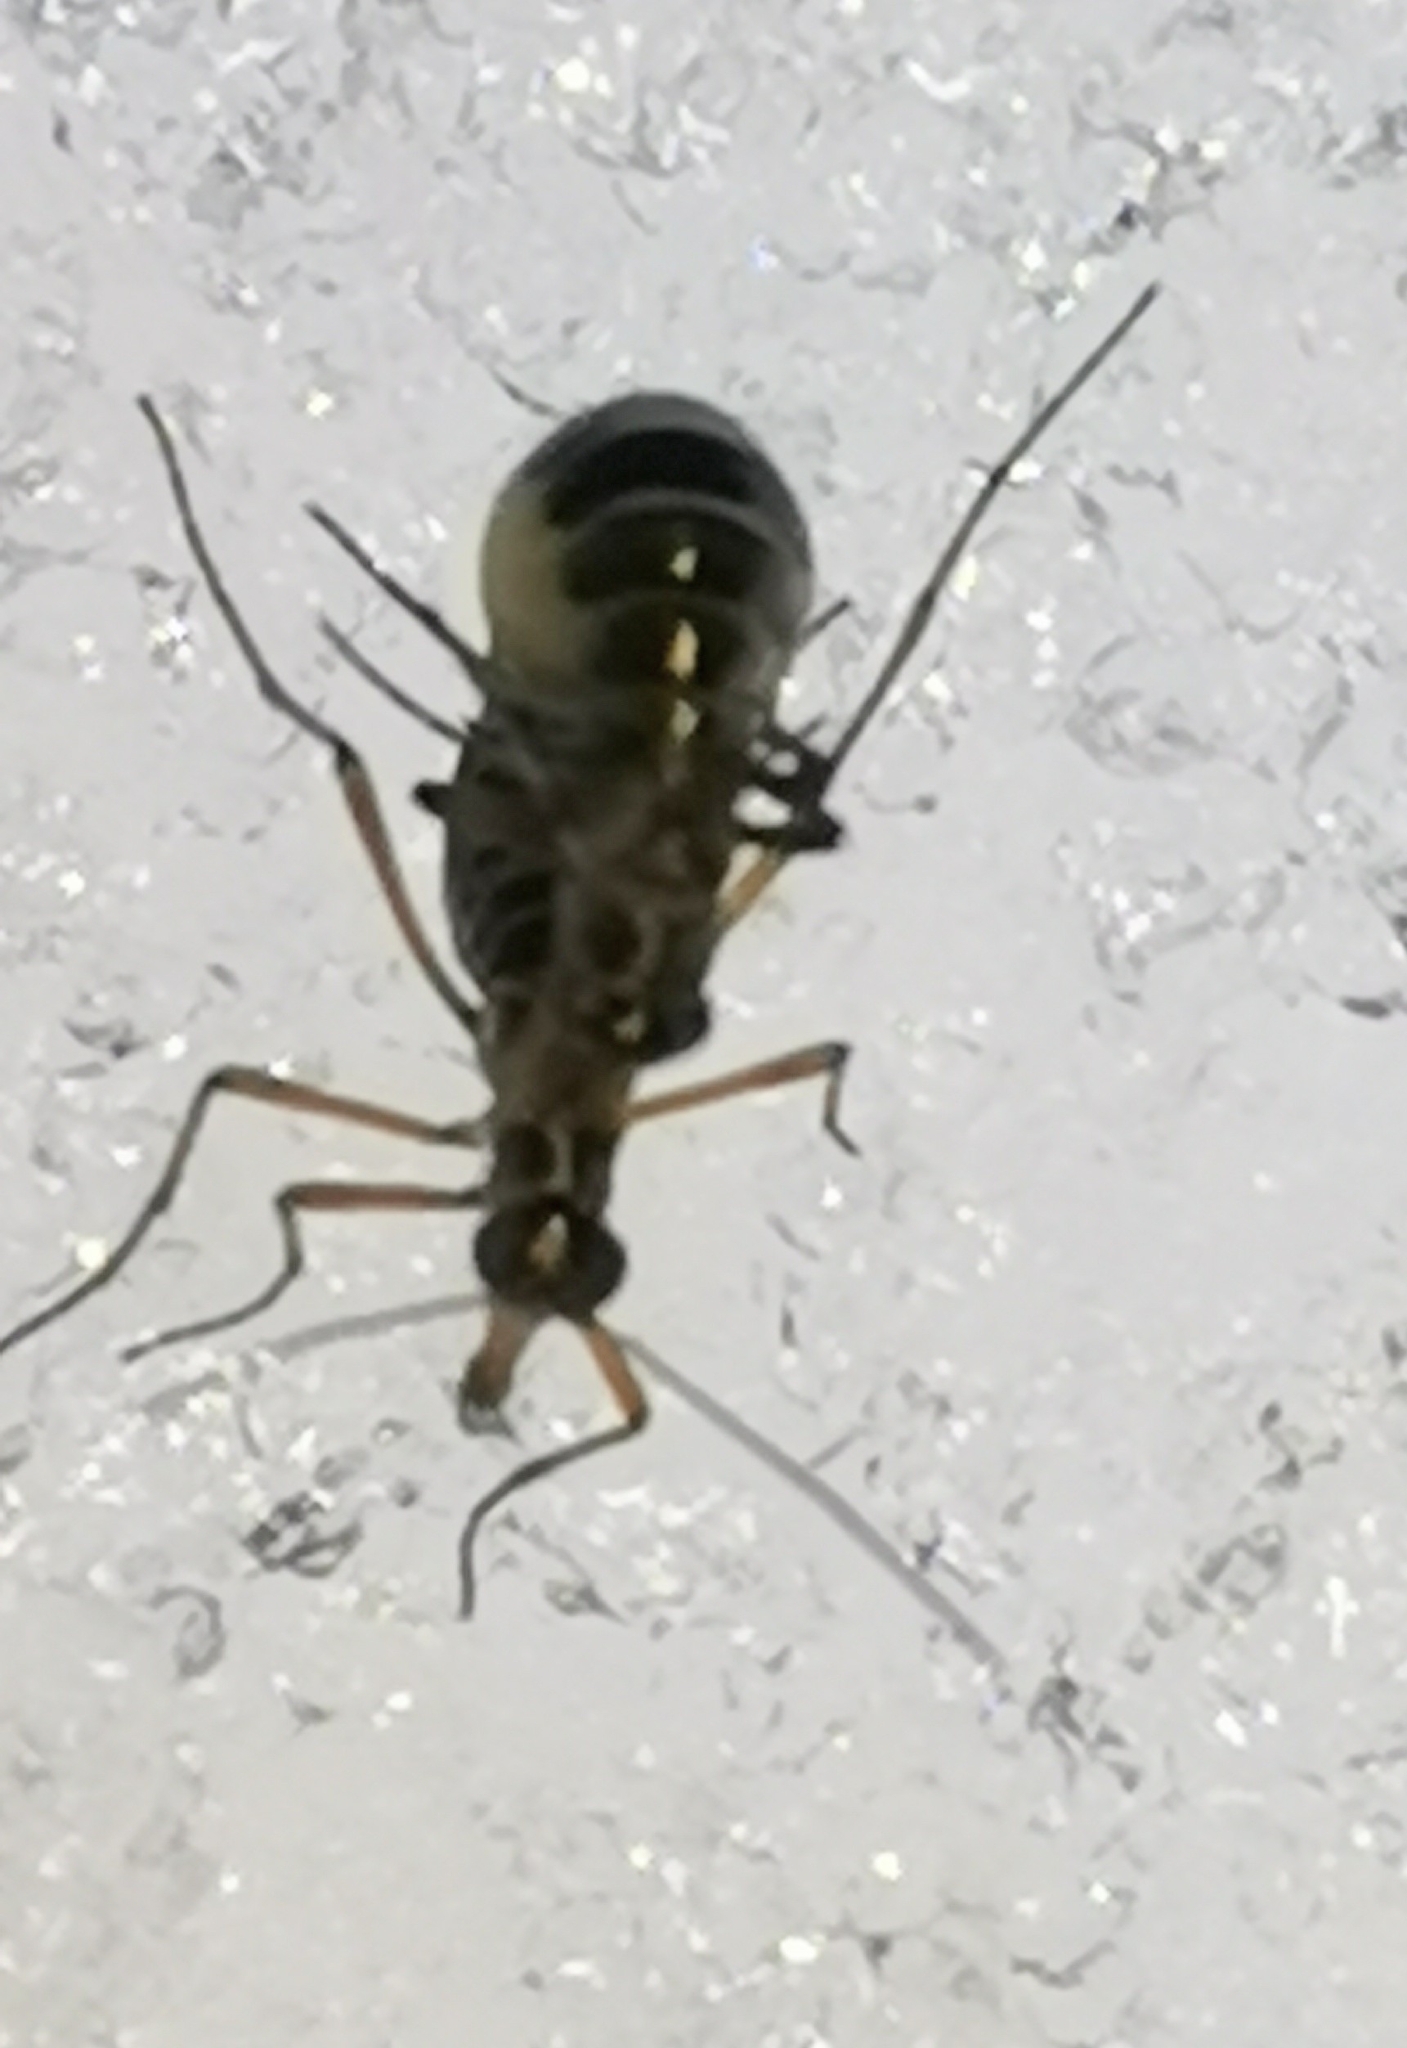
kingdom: Animalia
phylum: Arthropoda
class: Insecta
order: Mecoptera
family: Boreidae
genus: Boreus
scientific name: Boreus westwoodi
